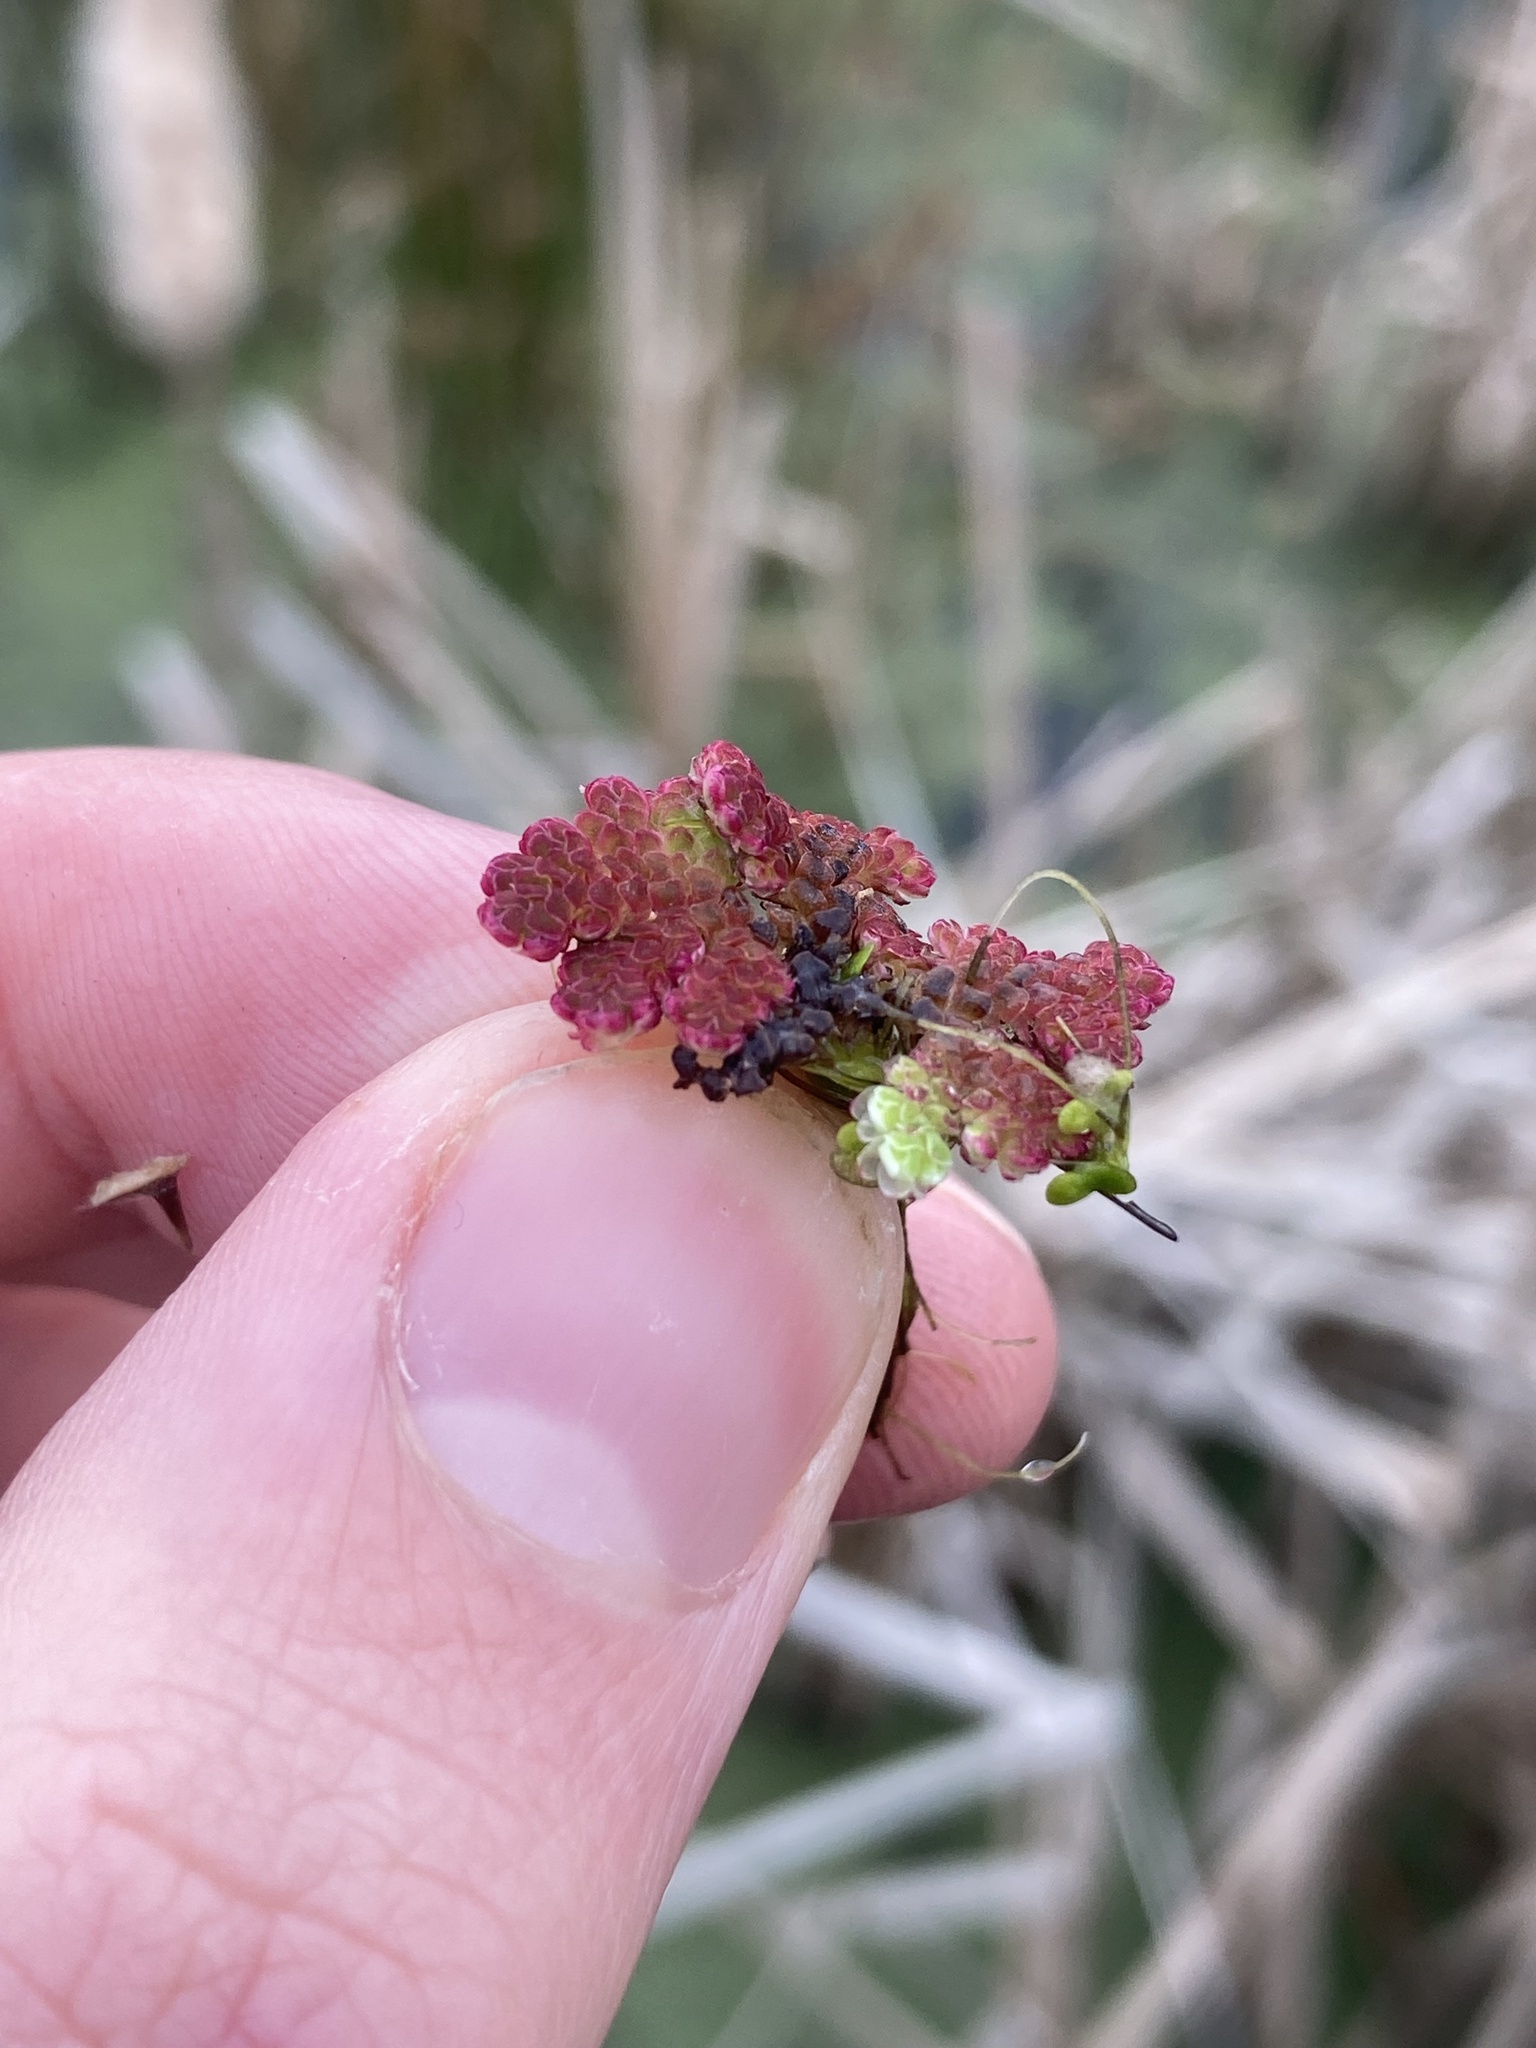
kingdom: Plantae
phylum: Tracheophyta
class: Polypodiopsida
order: Salviniales
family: Salviniaceae
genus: Azolla
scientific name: Azolla filiculoides
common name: Water fern
